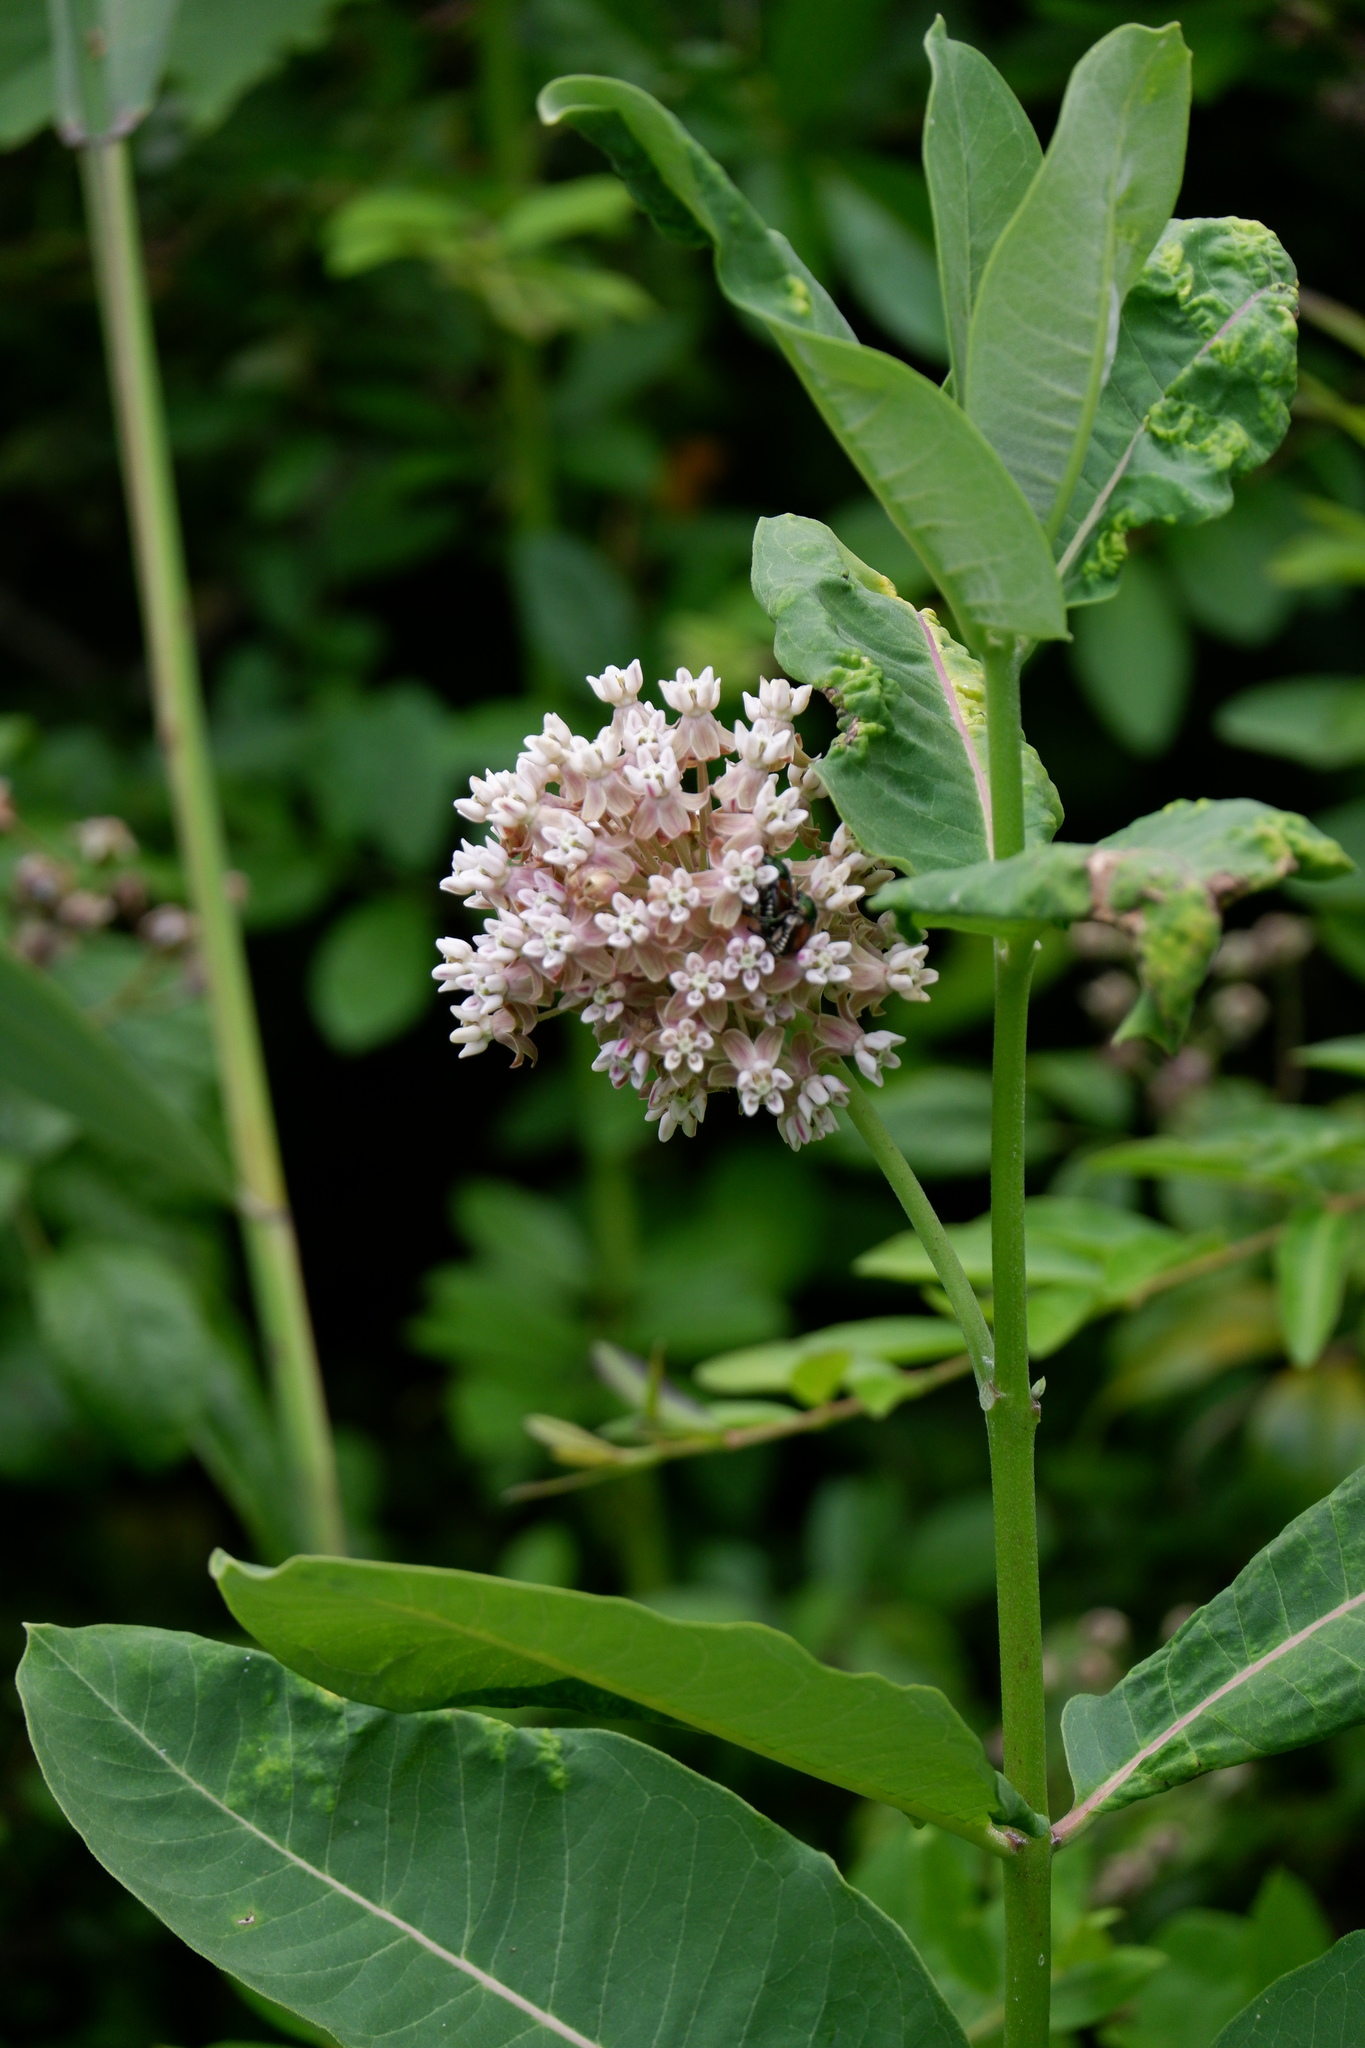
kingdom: Plantae
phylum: Tracheophyta
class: Magnoliopsida
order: Gentianales
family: Apocynaceae
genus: Asclepias
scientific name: Asclepias syriaca
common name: Common milkweed
